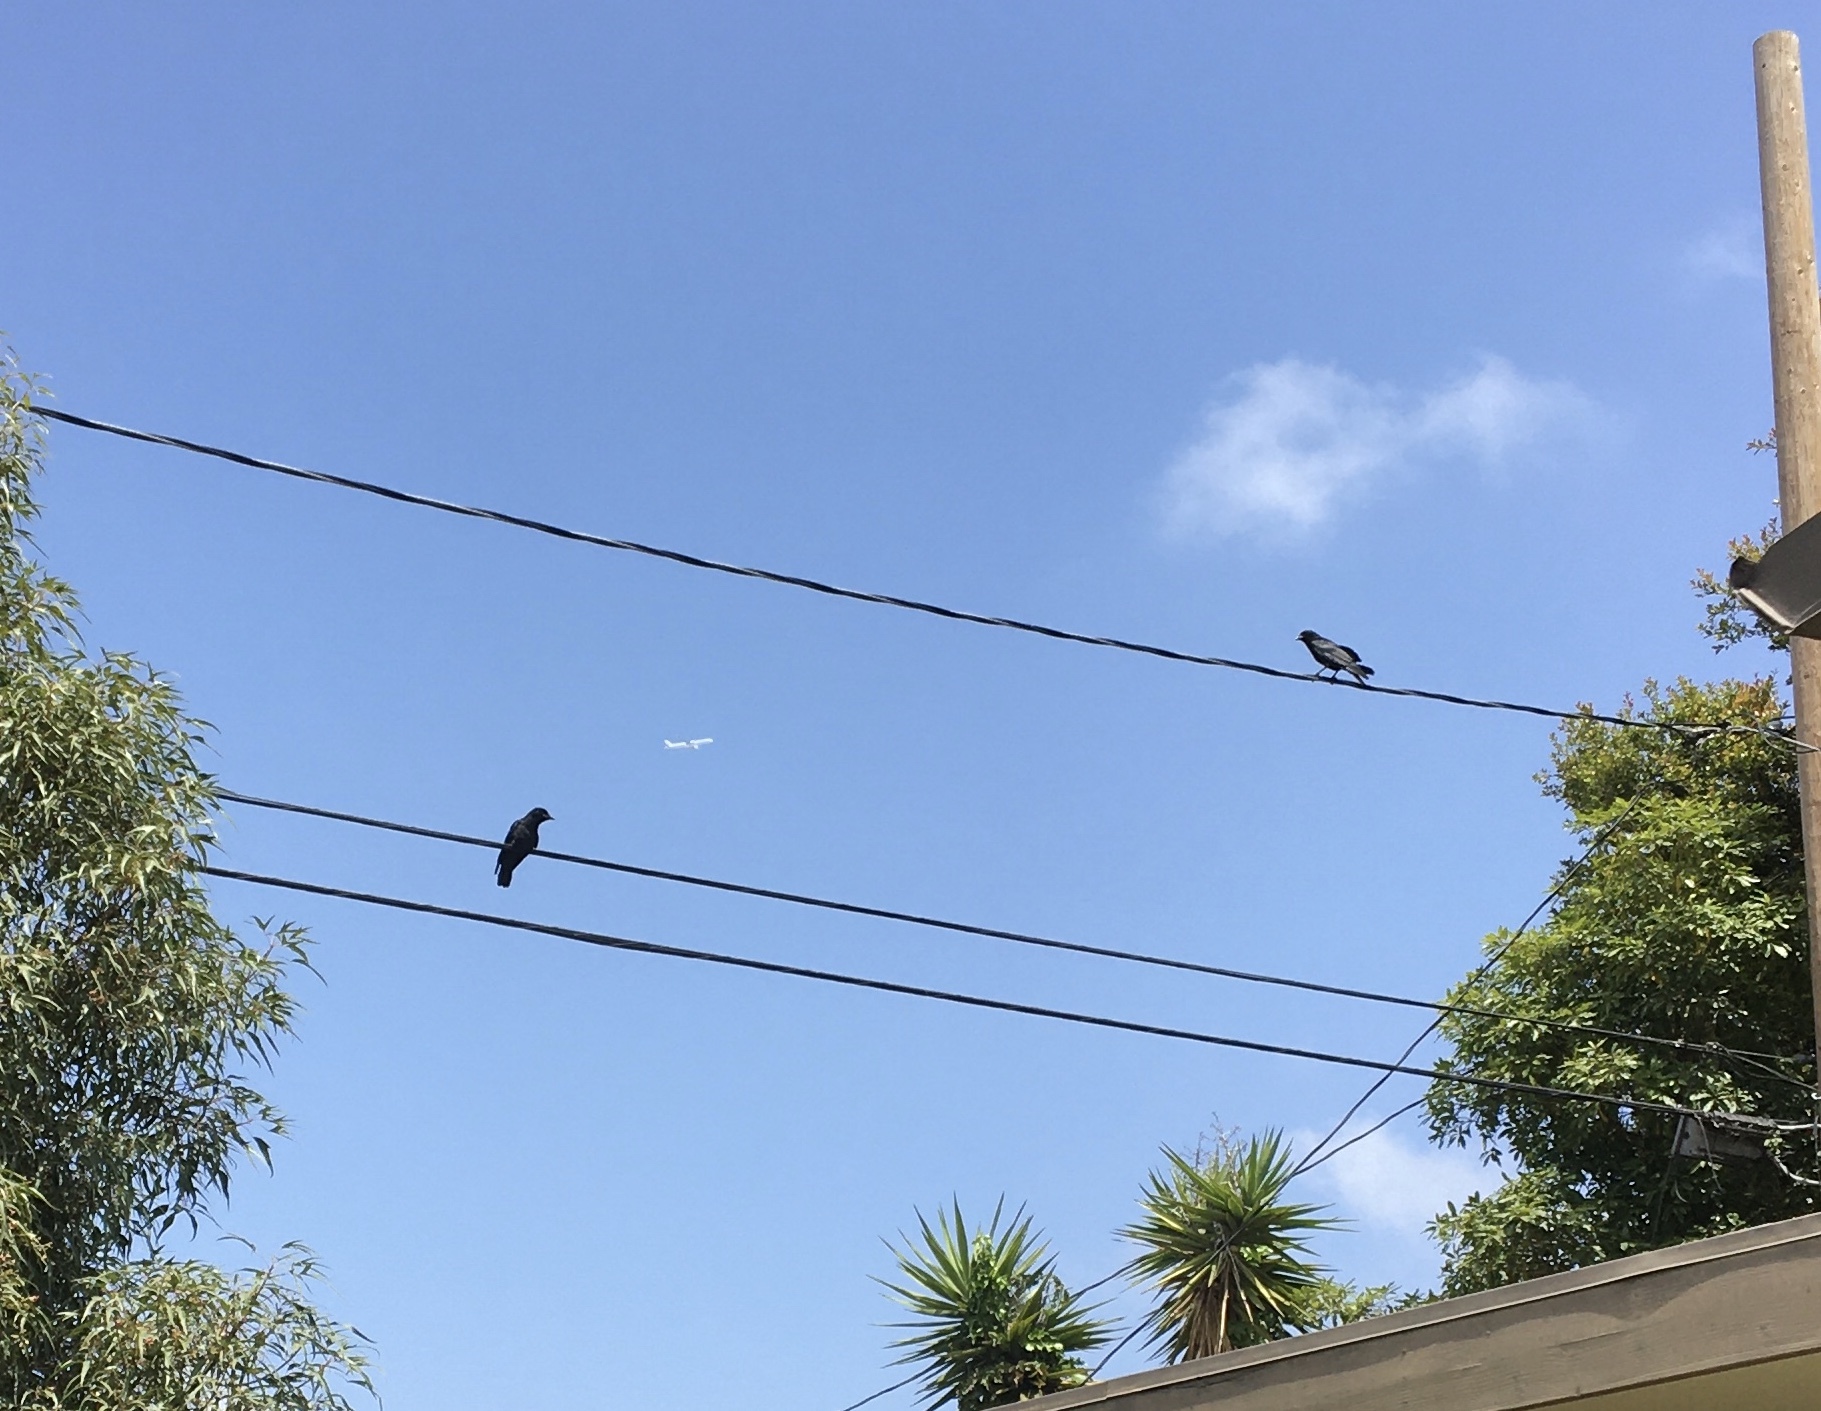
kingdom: Animalia
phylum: Chordata
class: Aves
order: Passeriformes
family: Corvidae
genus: Corvus
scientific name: Corvus brachyrhynchos
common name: American crow
